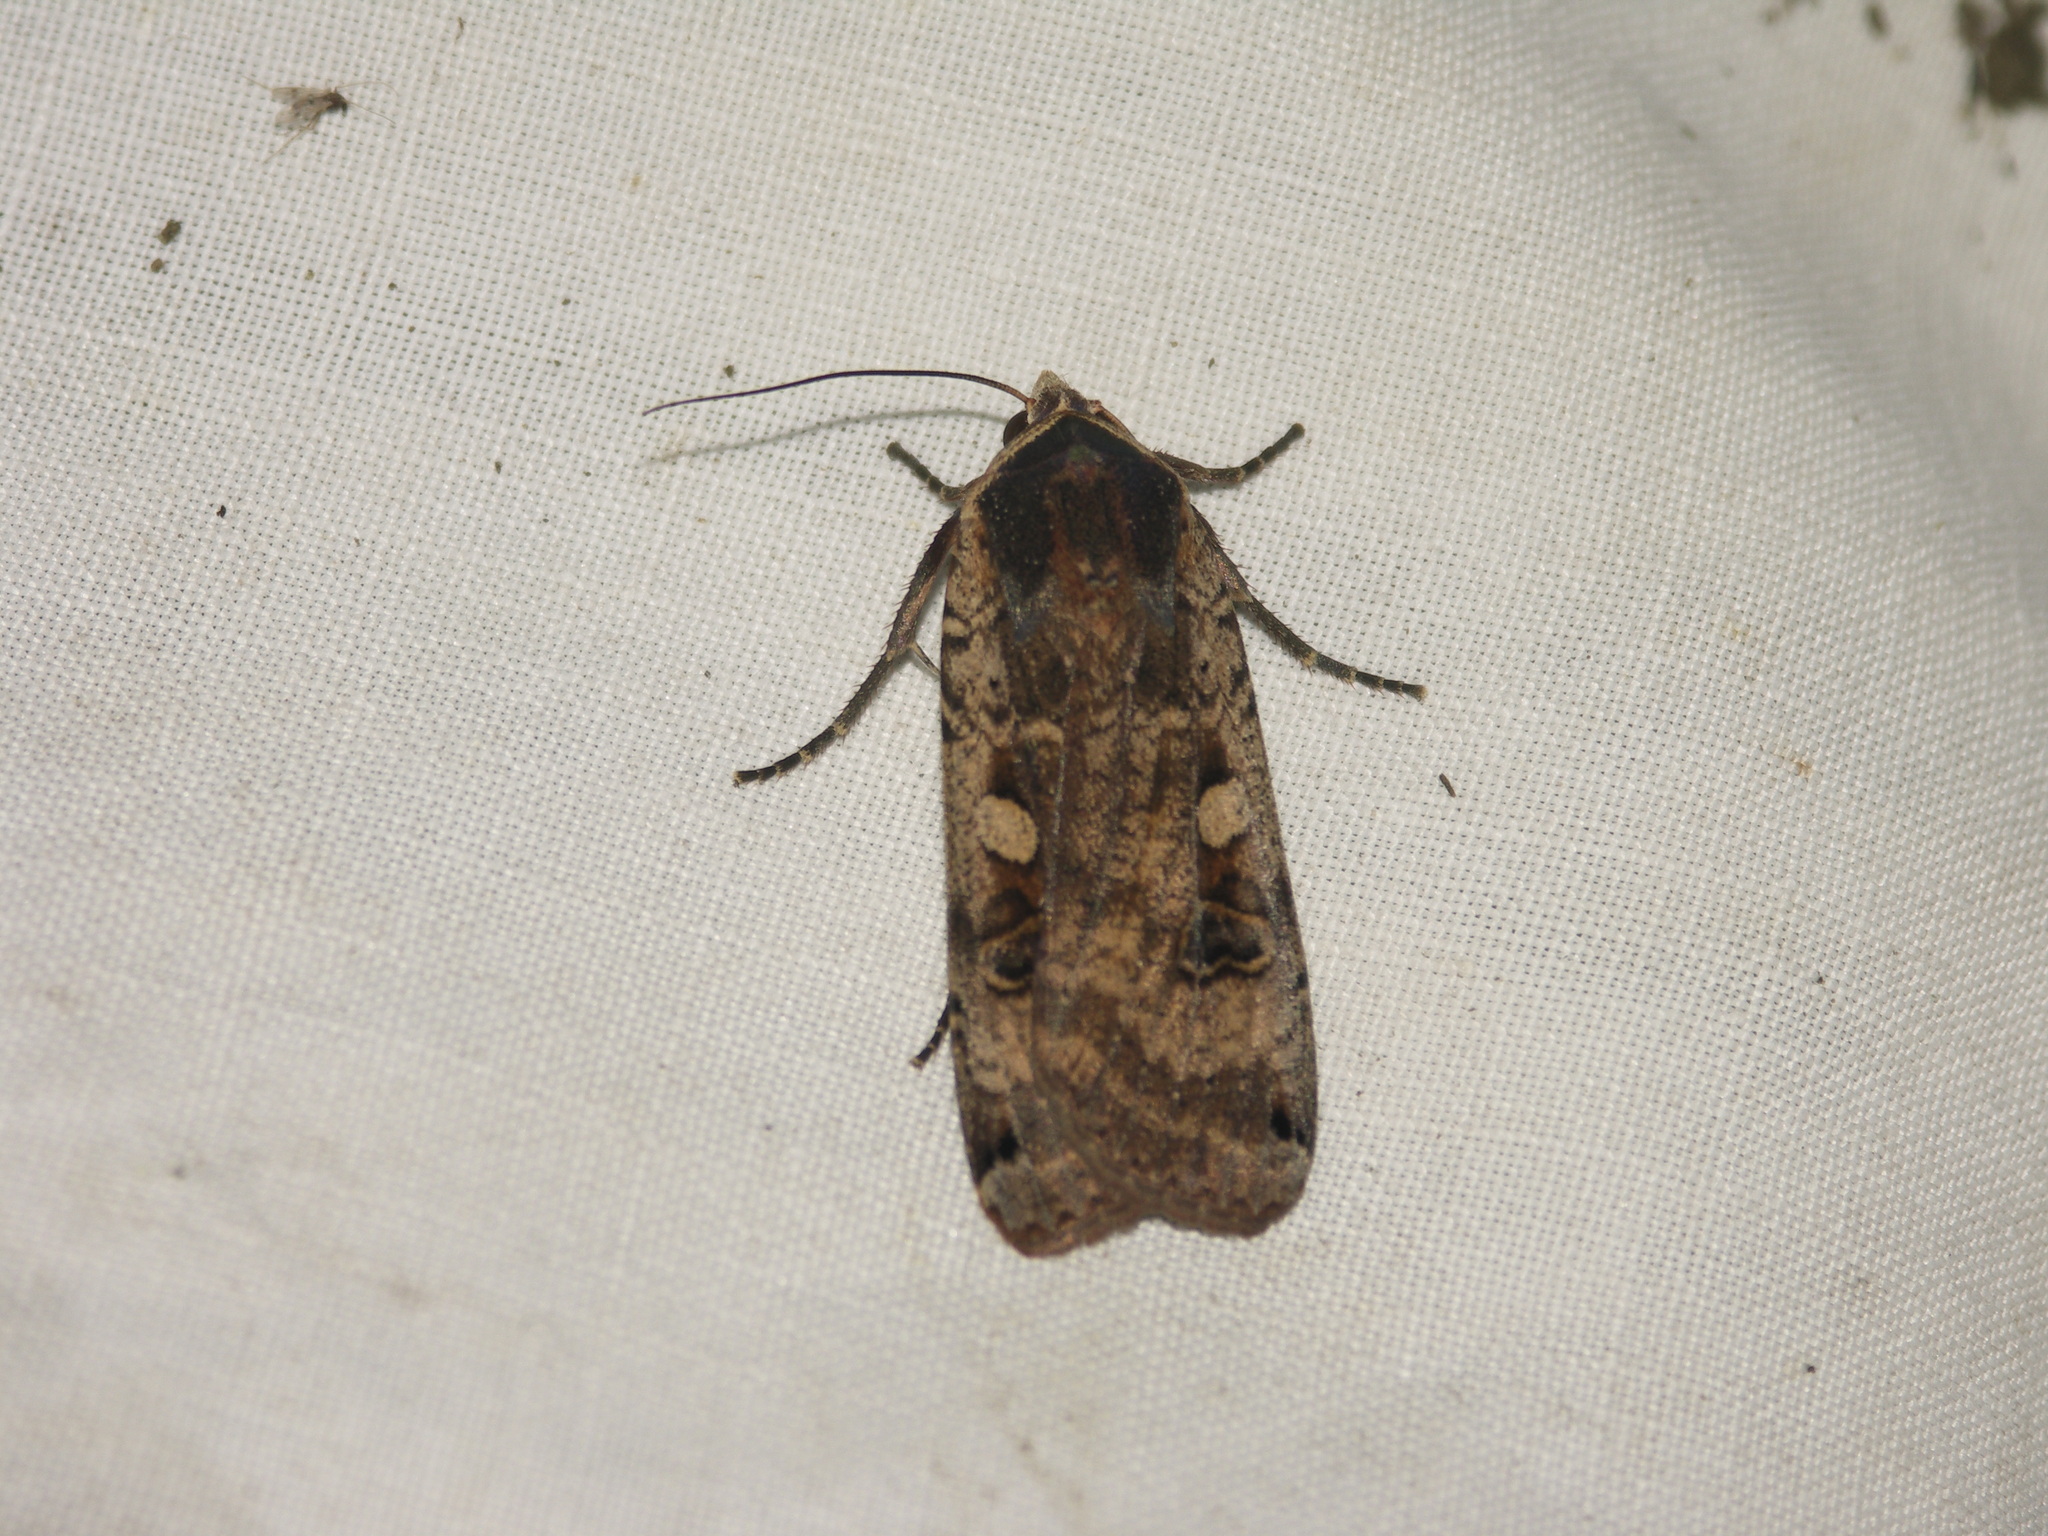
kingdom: Animalia
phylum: Arthropoda
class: Insecta
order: Lepidoptera
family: Noctuidae
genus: Noctua
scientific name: Noctua pronuba
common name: Large yellow underwing
